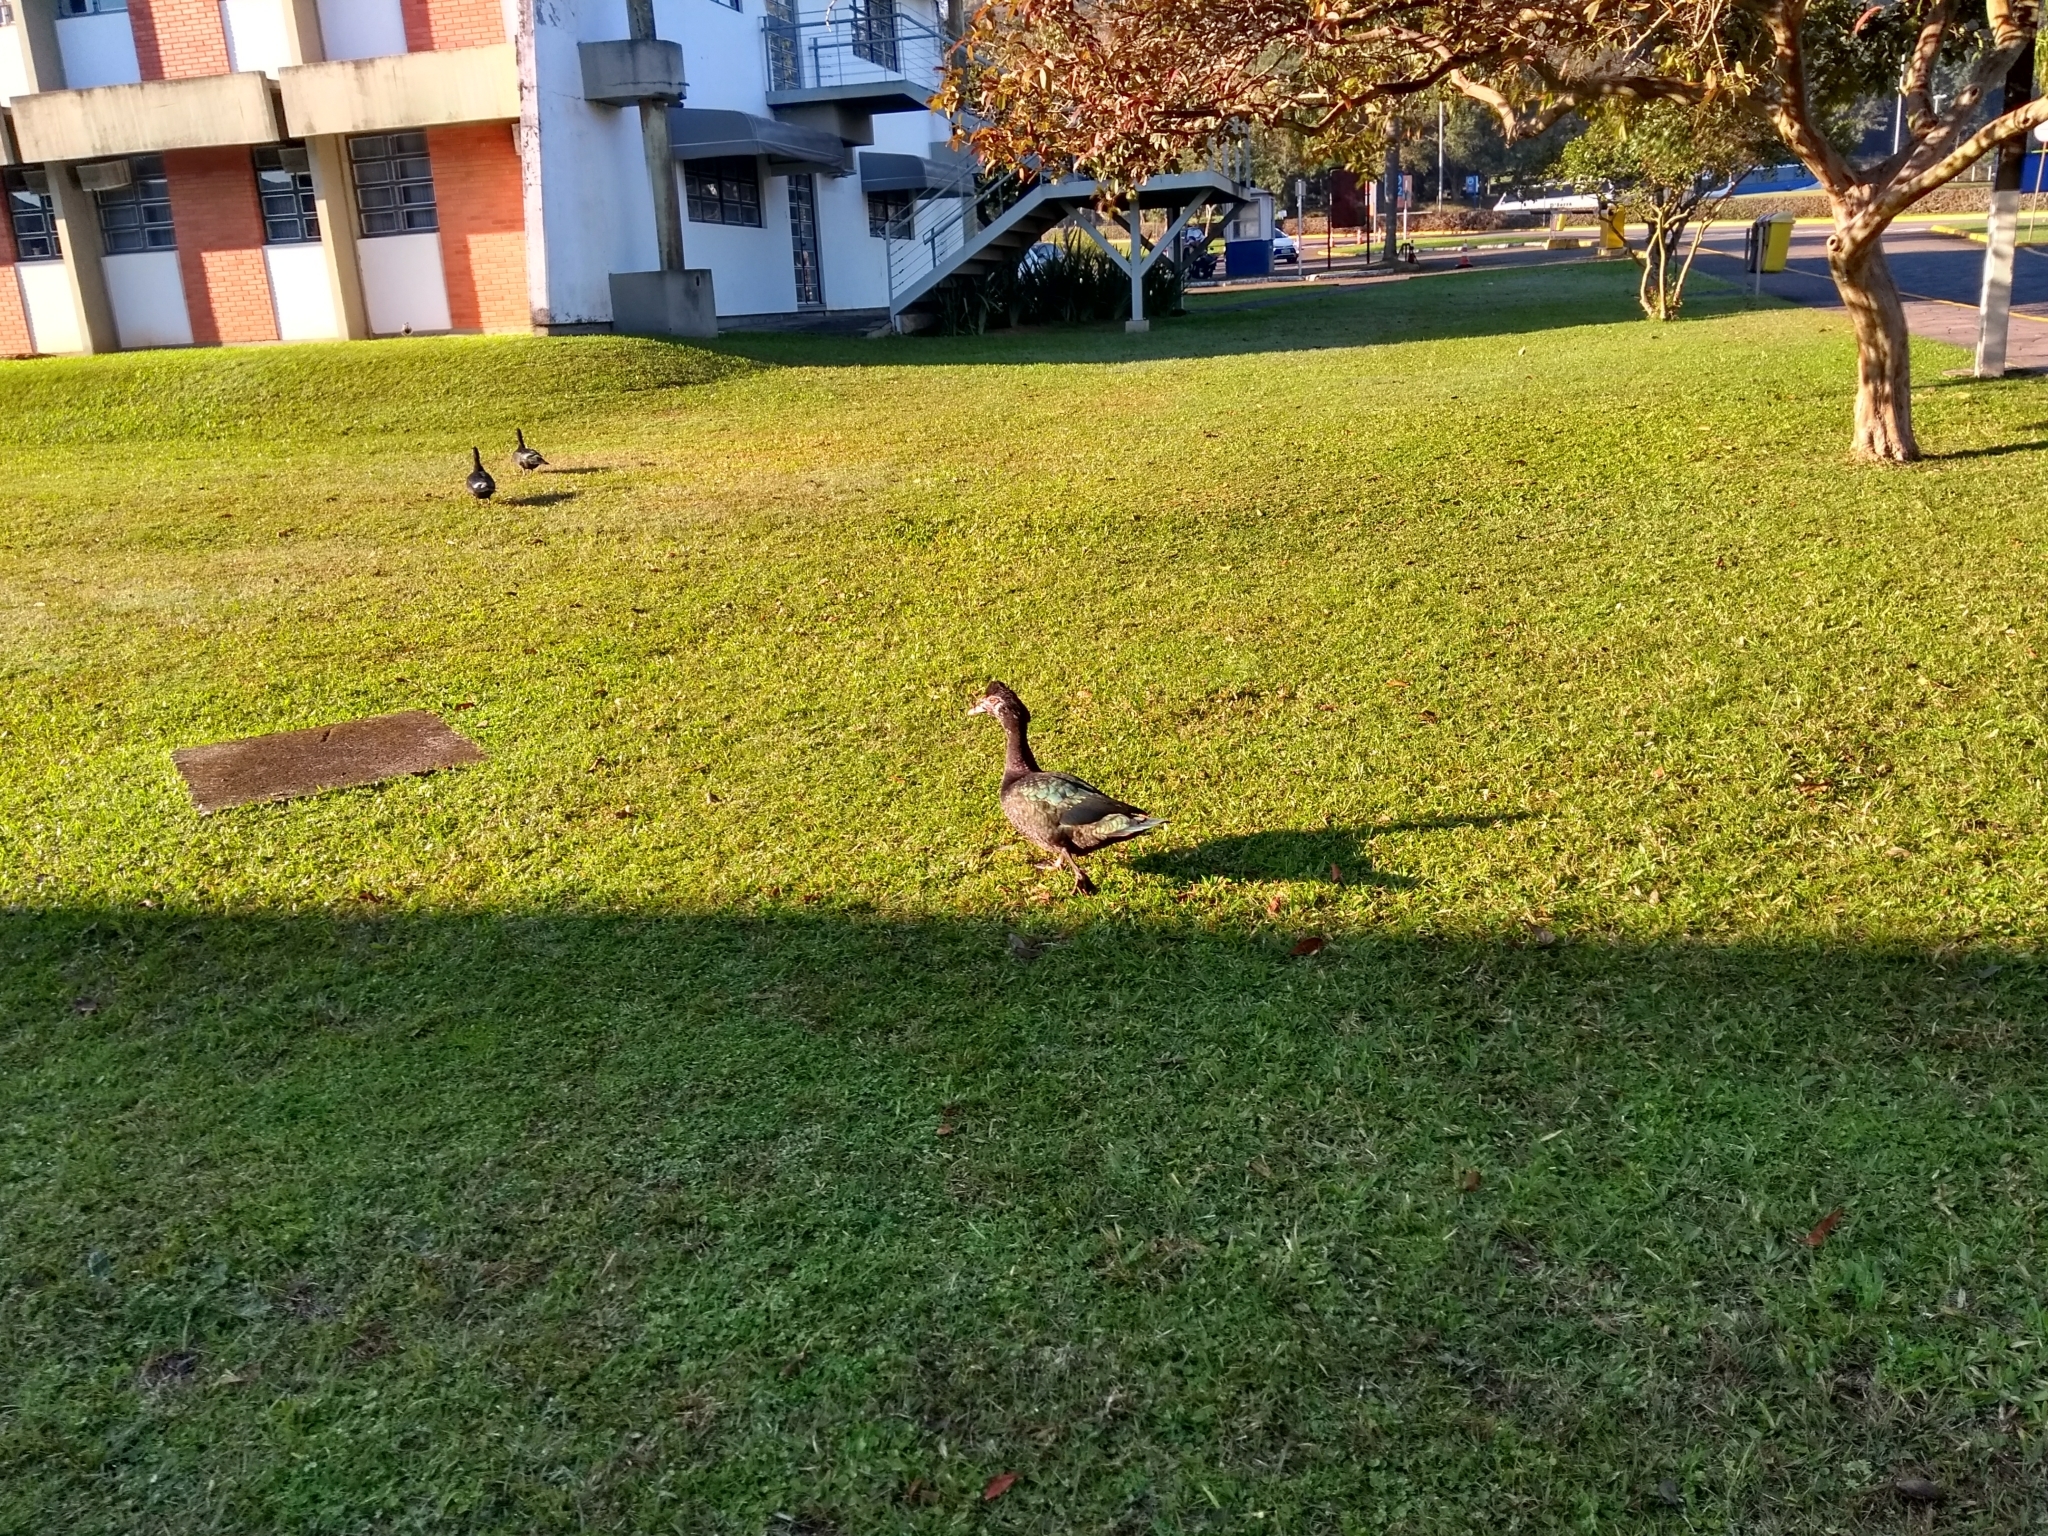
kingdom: Animalia
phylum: Chordata
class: Aves
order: Anseriformes
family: Anatidae
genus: Cairina
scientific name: Cairina moschata
